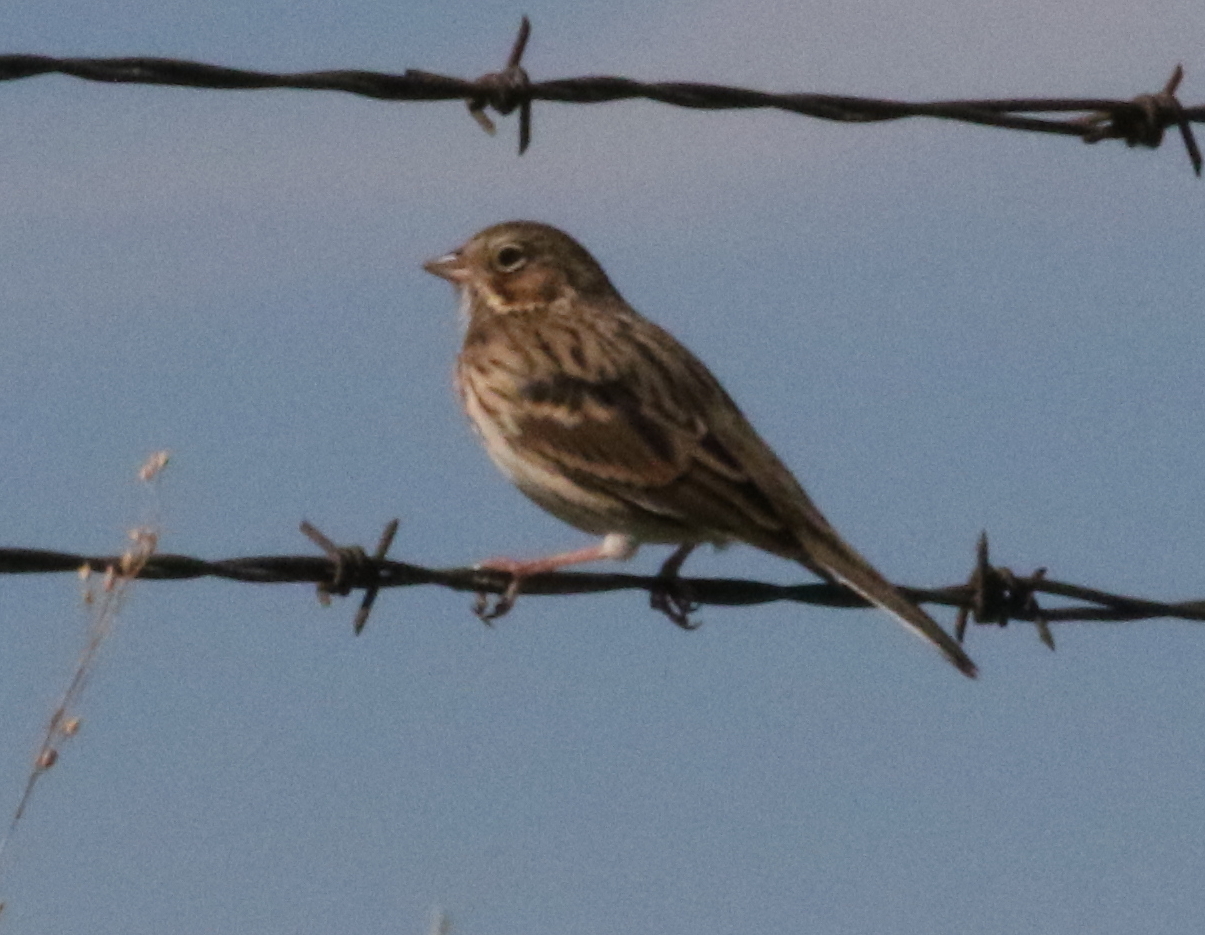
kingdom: Animalia
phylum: Chordata
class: Aves
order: Passeriformes
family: Passerellidae
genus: Pooecetes
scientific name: Pooecetes gramineus
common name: Vesper sparrow
